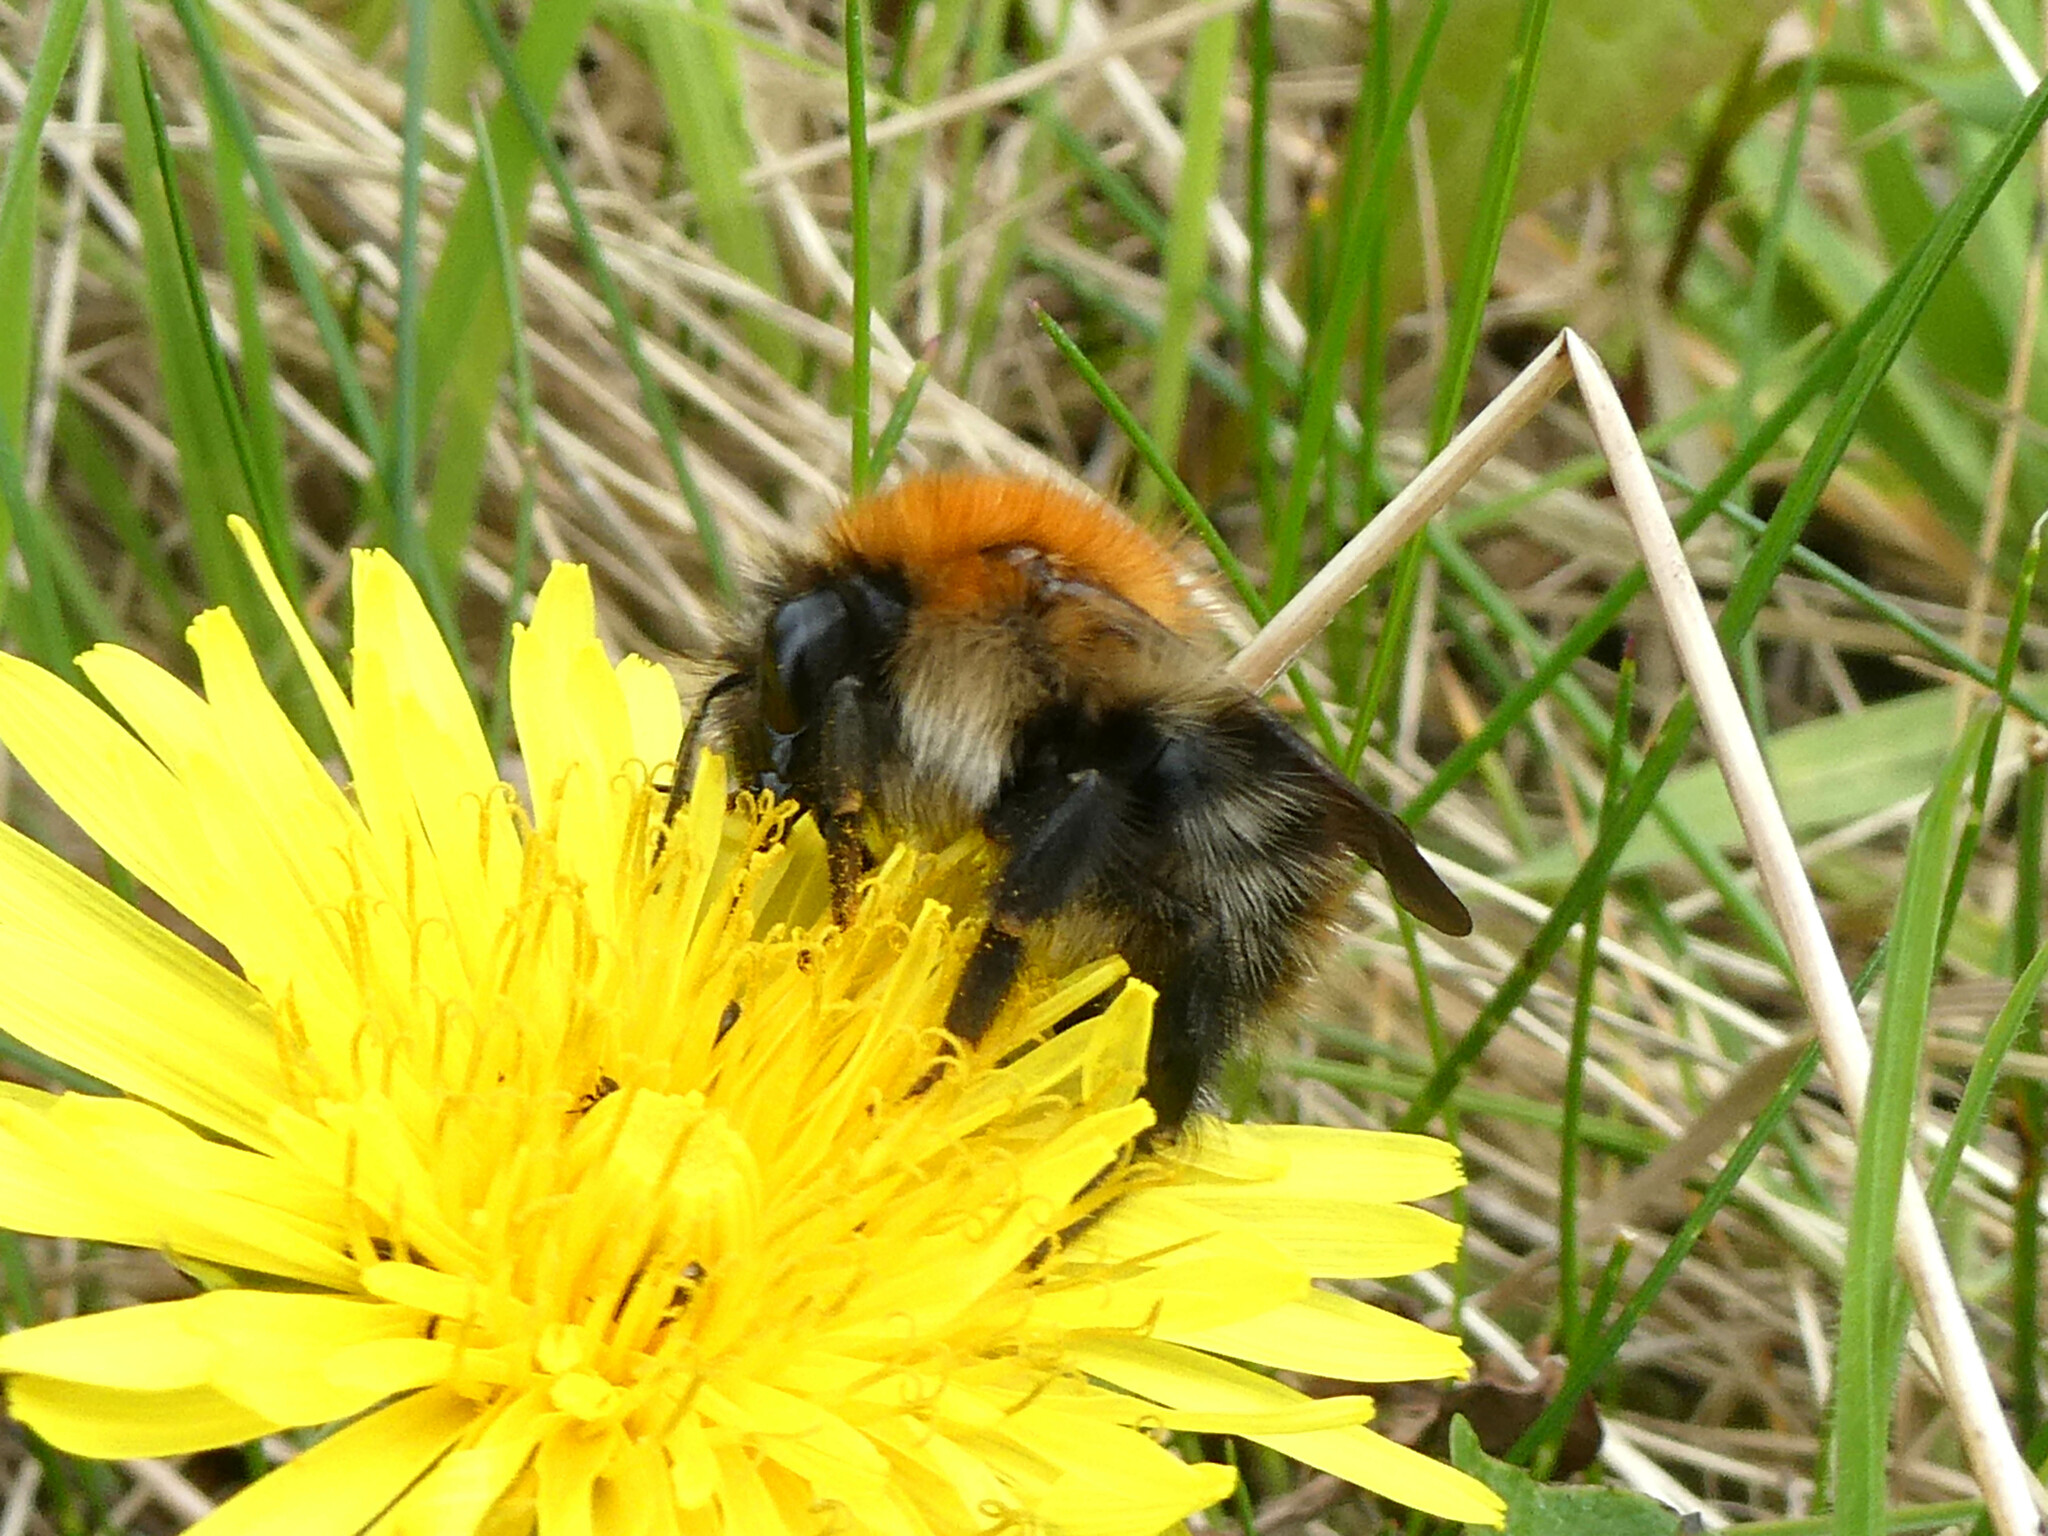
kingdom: Animalia
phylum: Arthropoda
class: Insecta
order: Hymenoptera
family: Apidae
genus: Bombus
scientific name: Bombus pascuorum
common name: Common carder bee
